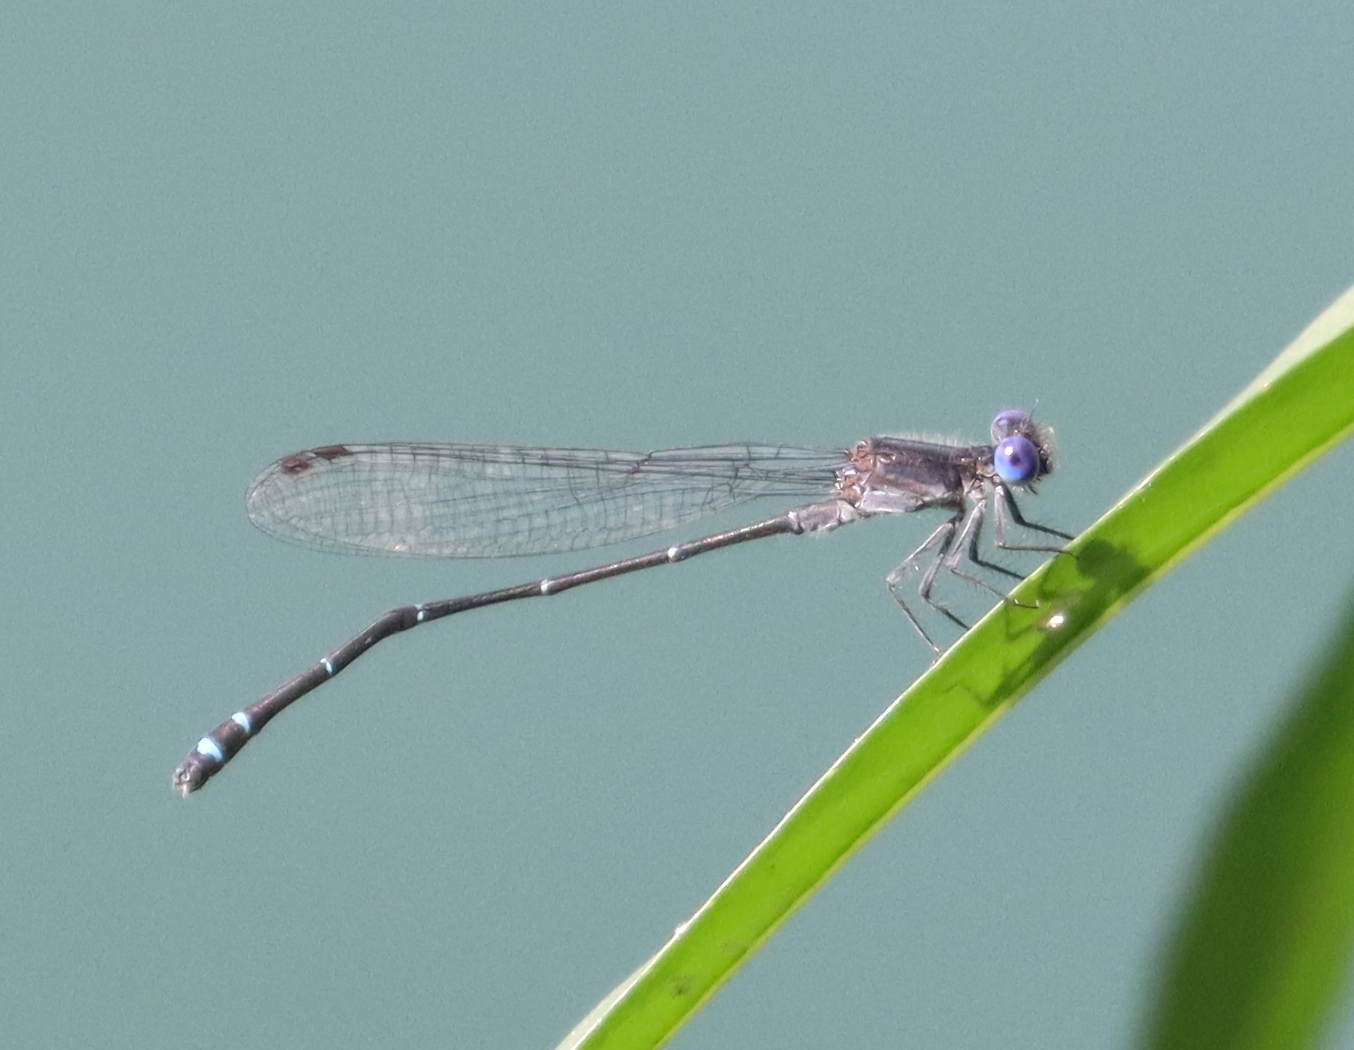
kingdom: Animalia
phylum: Arthropoda
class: Insecta
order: Odonata
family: Coenagrionidae
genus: Argia
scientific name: Argia translata
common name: Dusky dancer
